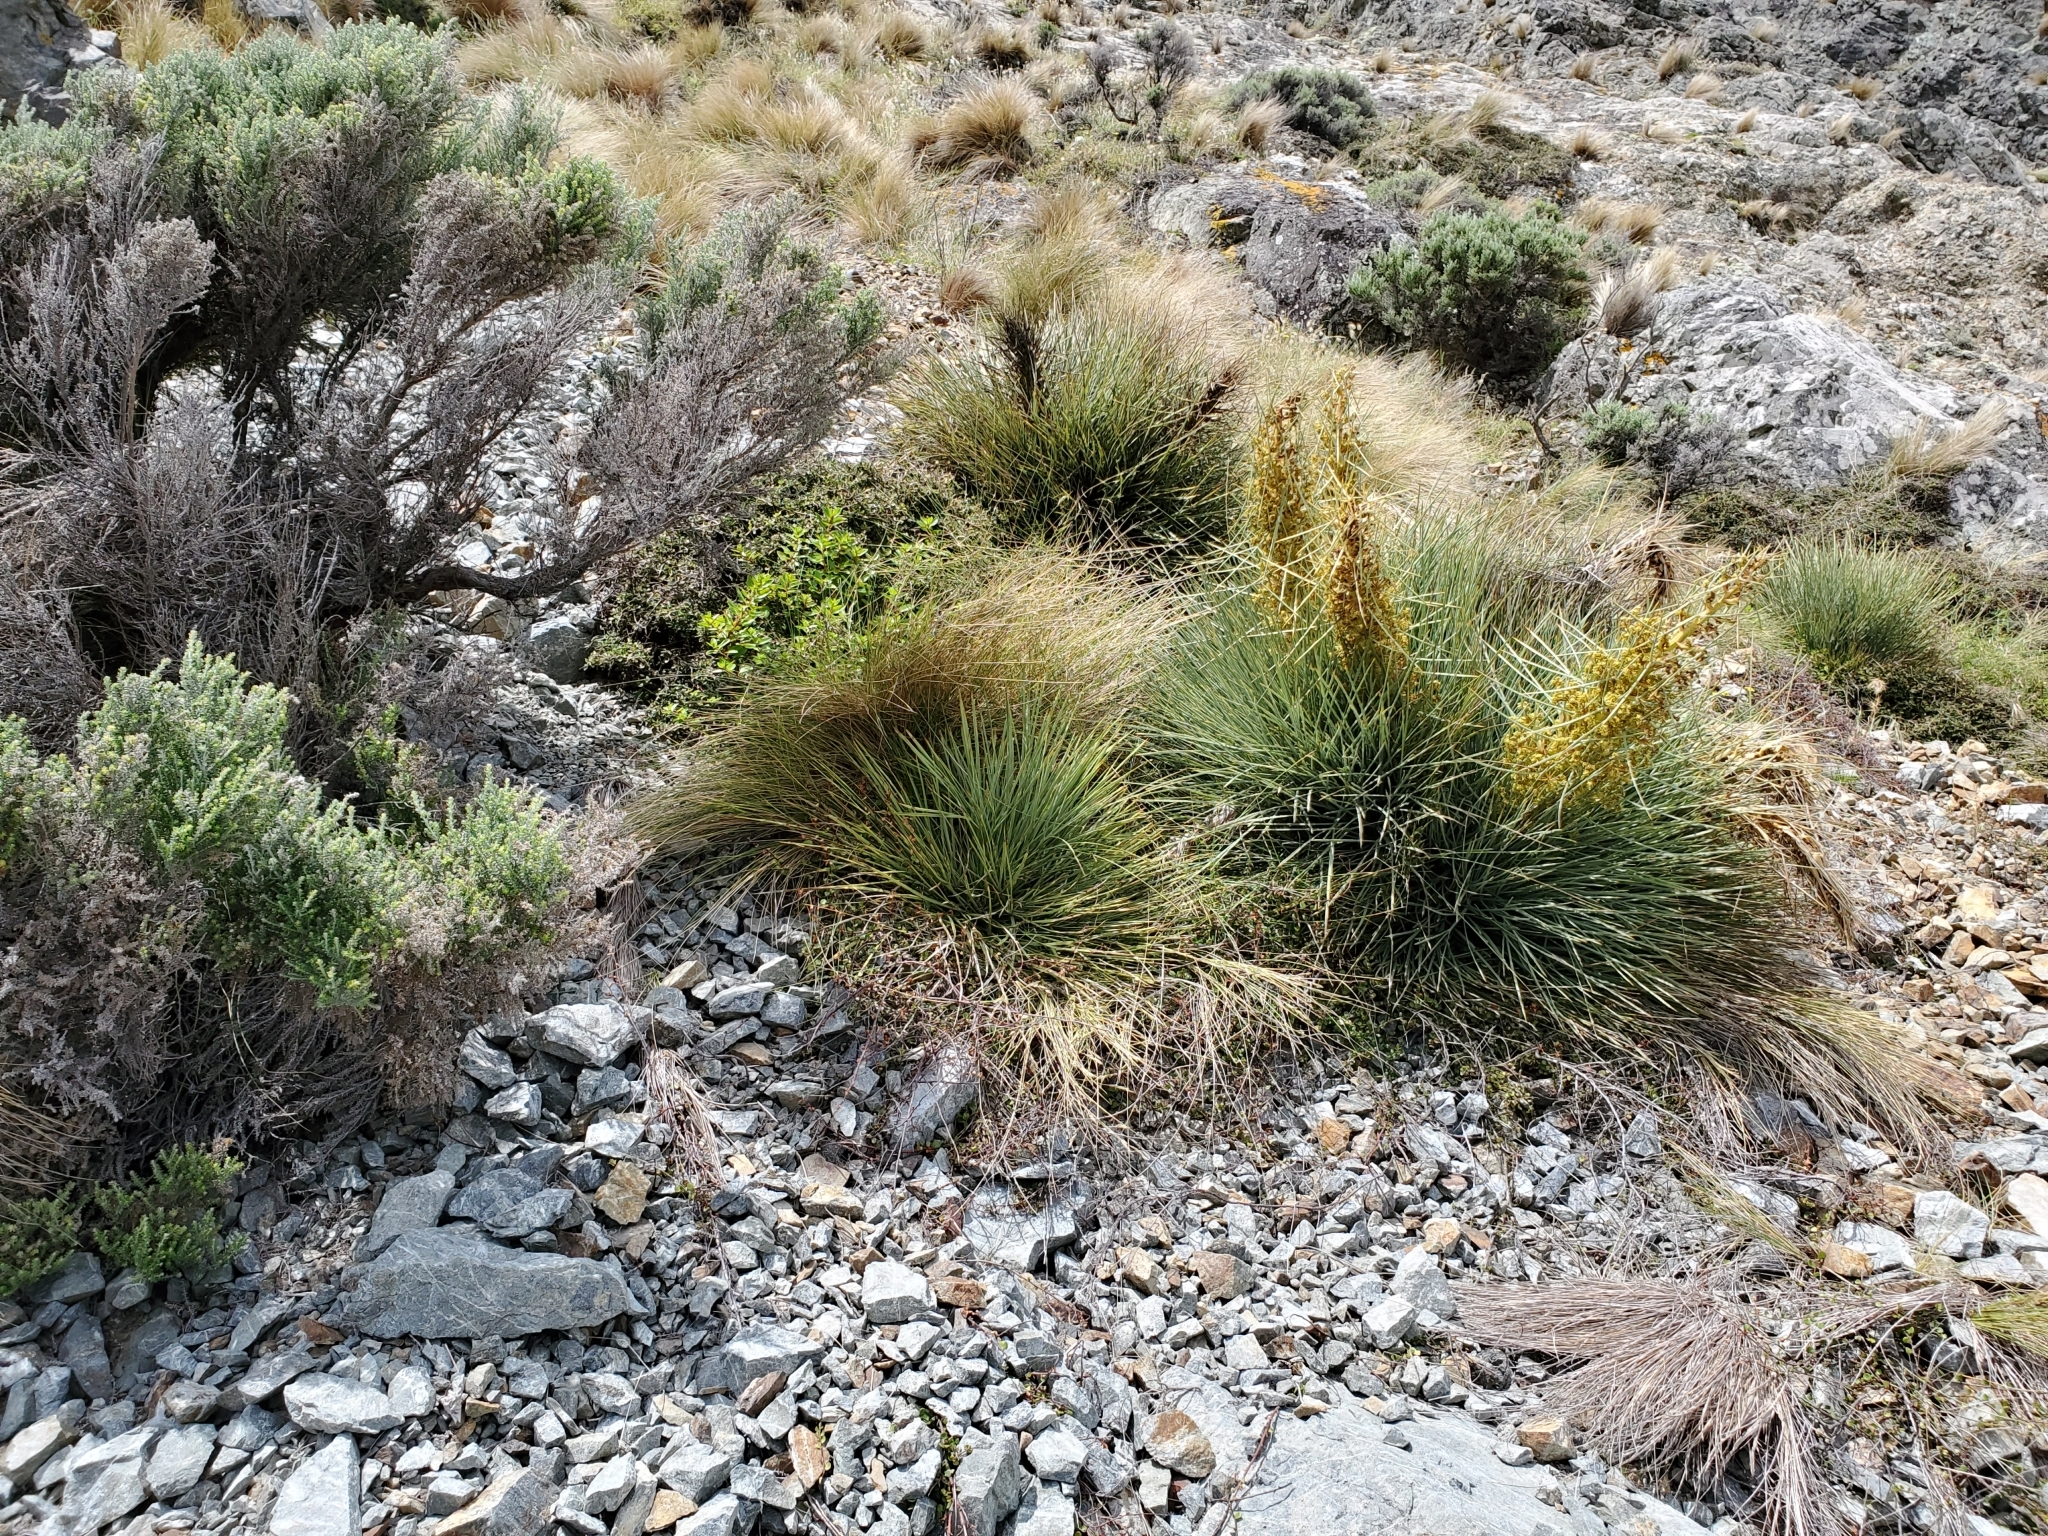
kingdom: Plantae
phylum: Tracheophyta
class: Magnoliopsida
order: Apiales
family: Apiaceae
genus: Aciphylla
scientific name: Aciphylla squarrosa
